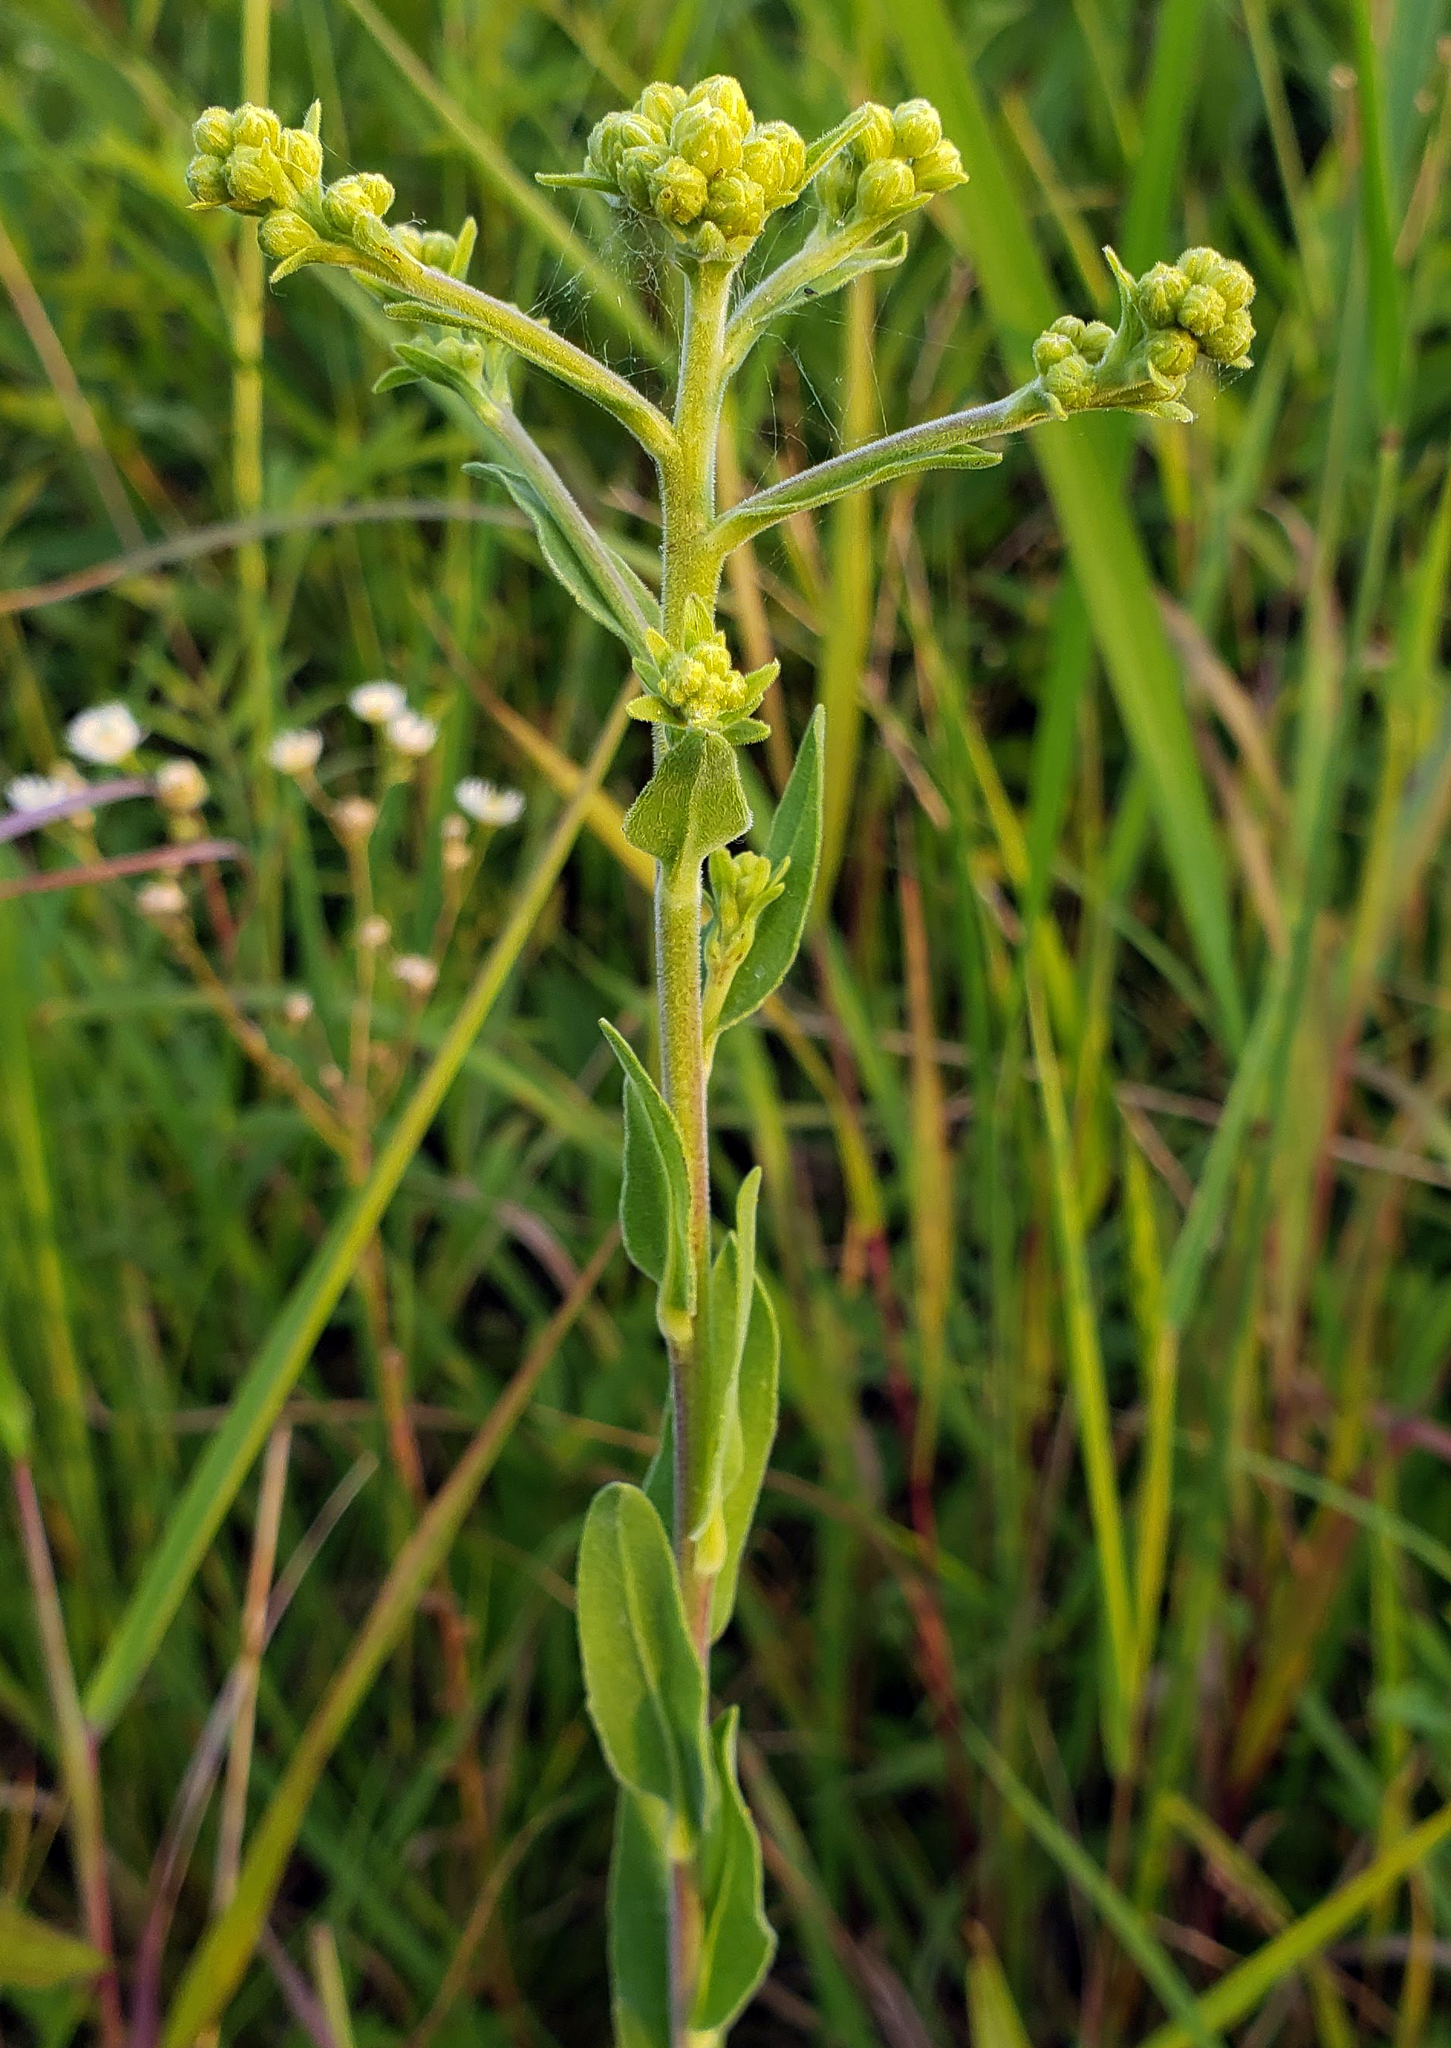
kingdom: Plantae
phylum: Tracheophyta
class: Magnoliopsida
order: Asterales
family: Asteraceae
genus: Solidago
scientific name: Solidago rigida
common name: Rigid goldenrod
